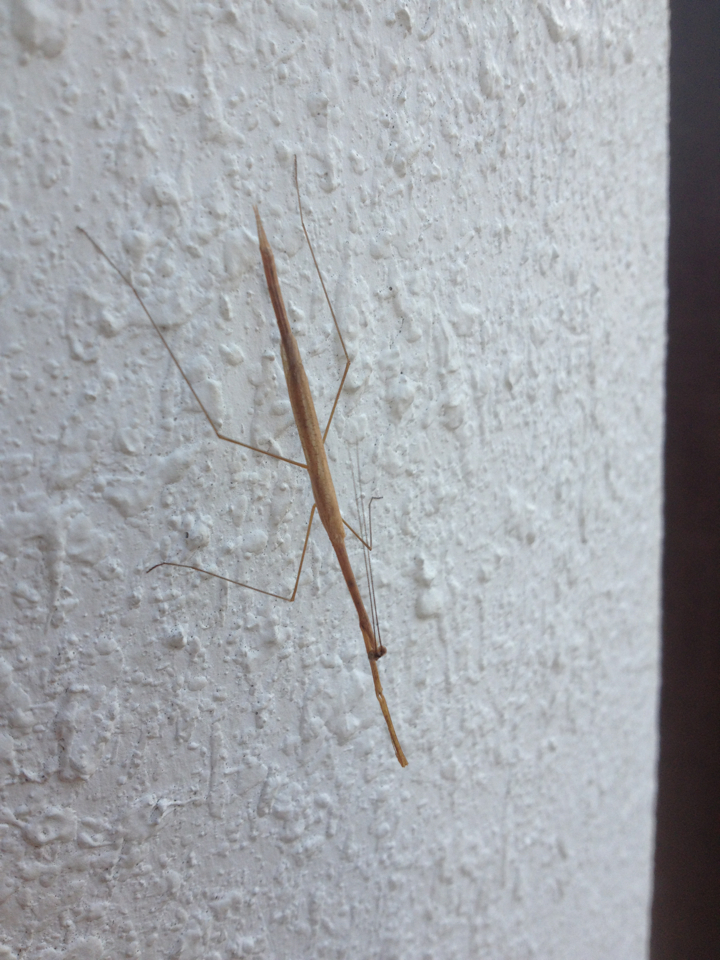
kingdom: Animalia
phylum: Arthropoda
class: Insecta
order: Mantodea
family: Thespidae
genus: Thesprotia
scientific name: Thesprotia graminis
